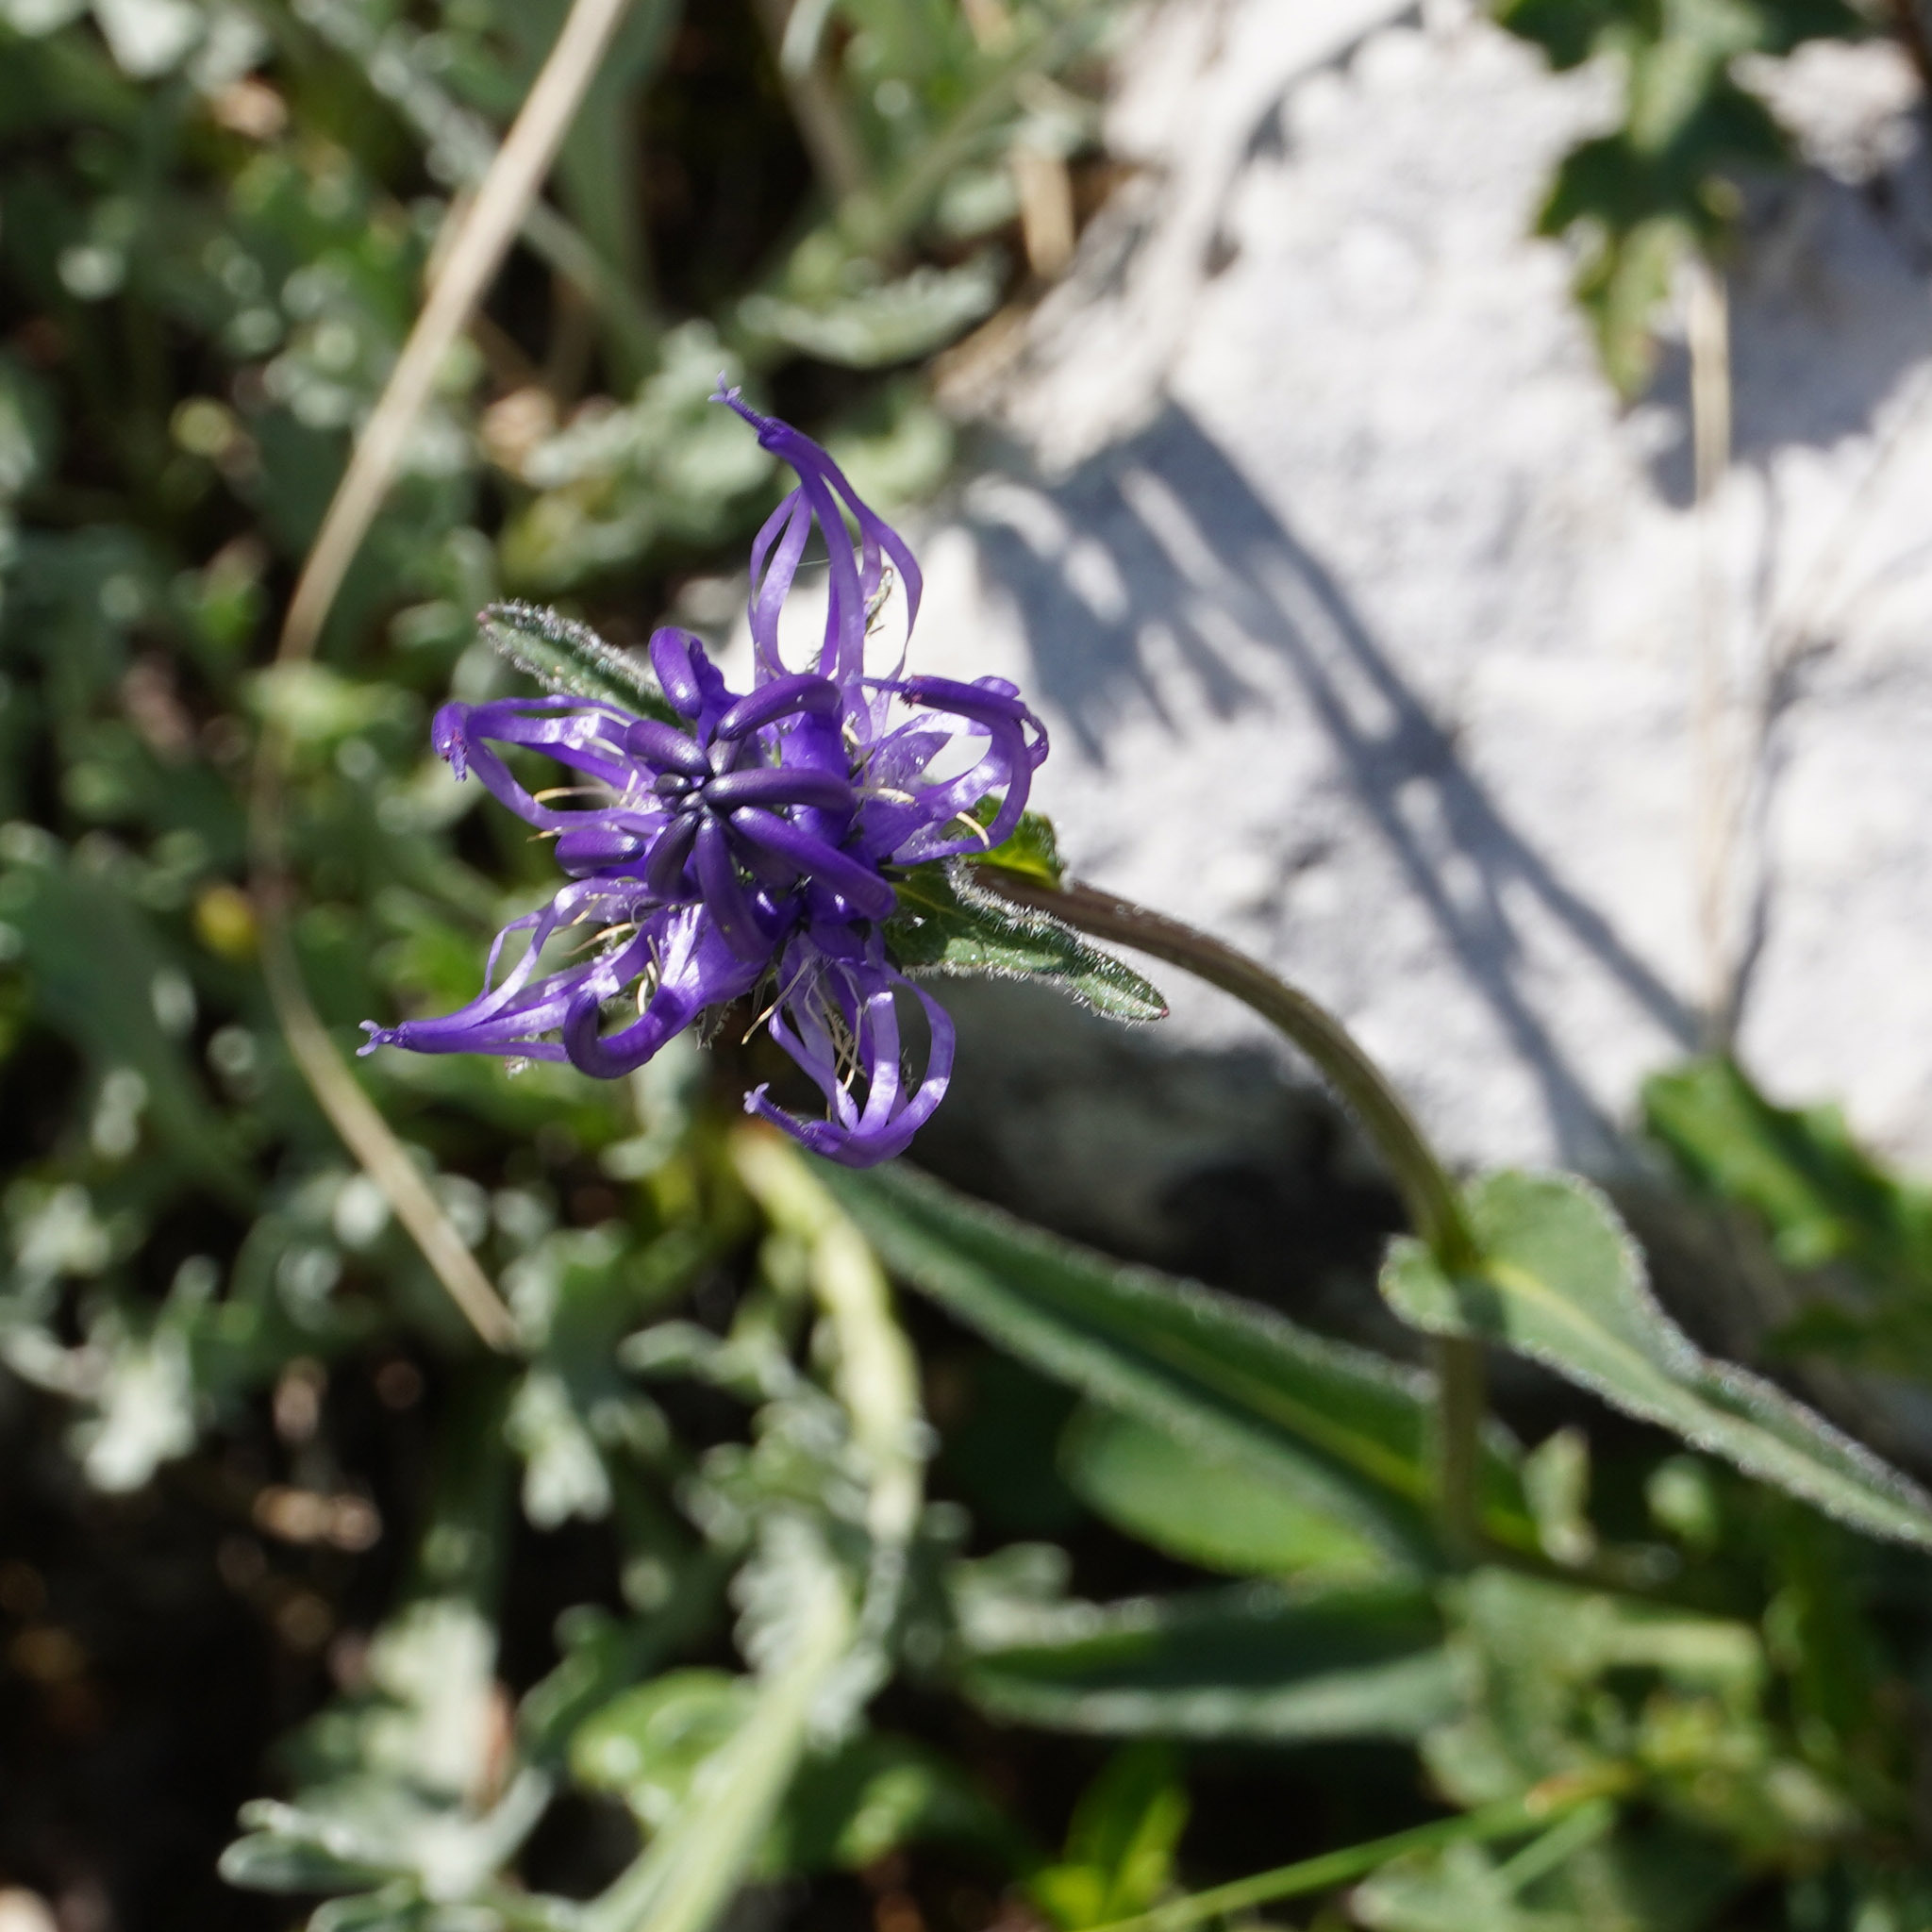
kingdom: Plantae
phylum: Tracheophyta
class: Magnoliopsida
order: Asterales
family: Campanulaceae
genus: Phyteuma
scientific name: Phyteuma orbiculare
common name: Round-headed rampion
